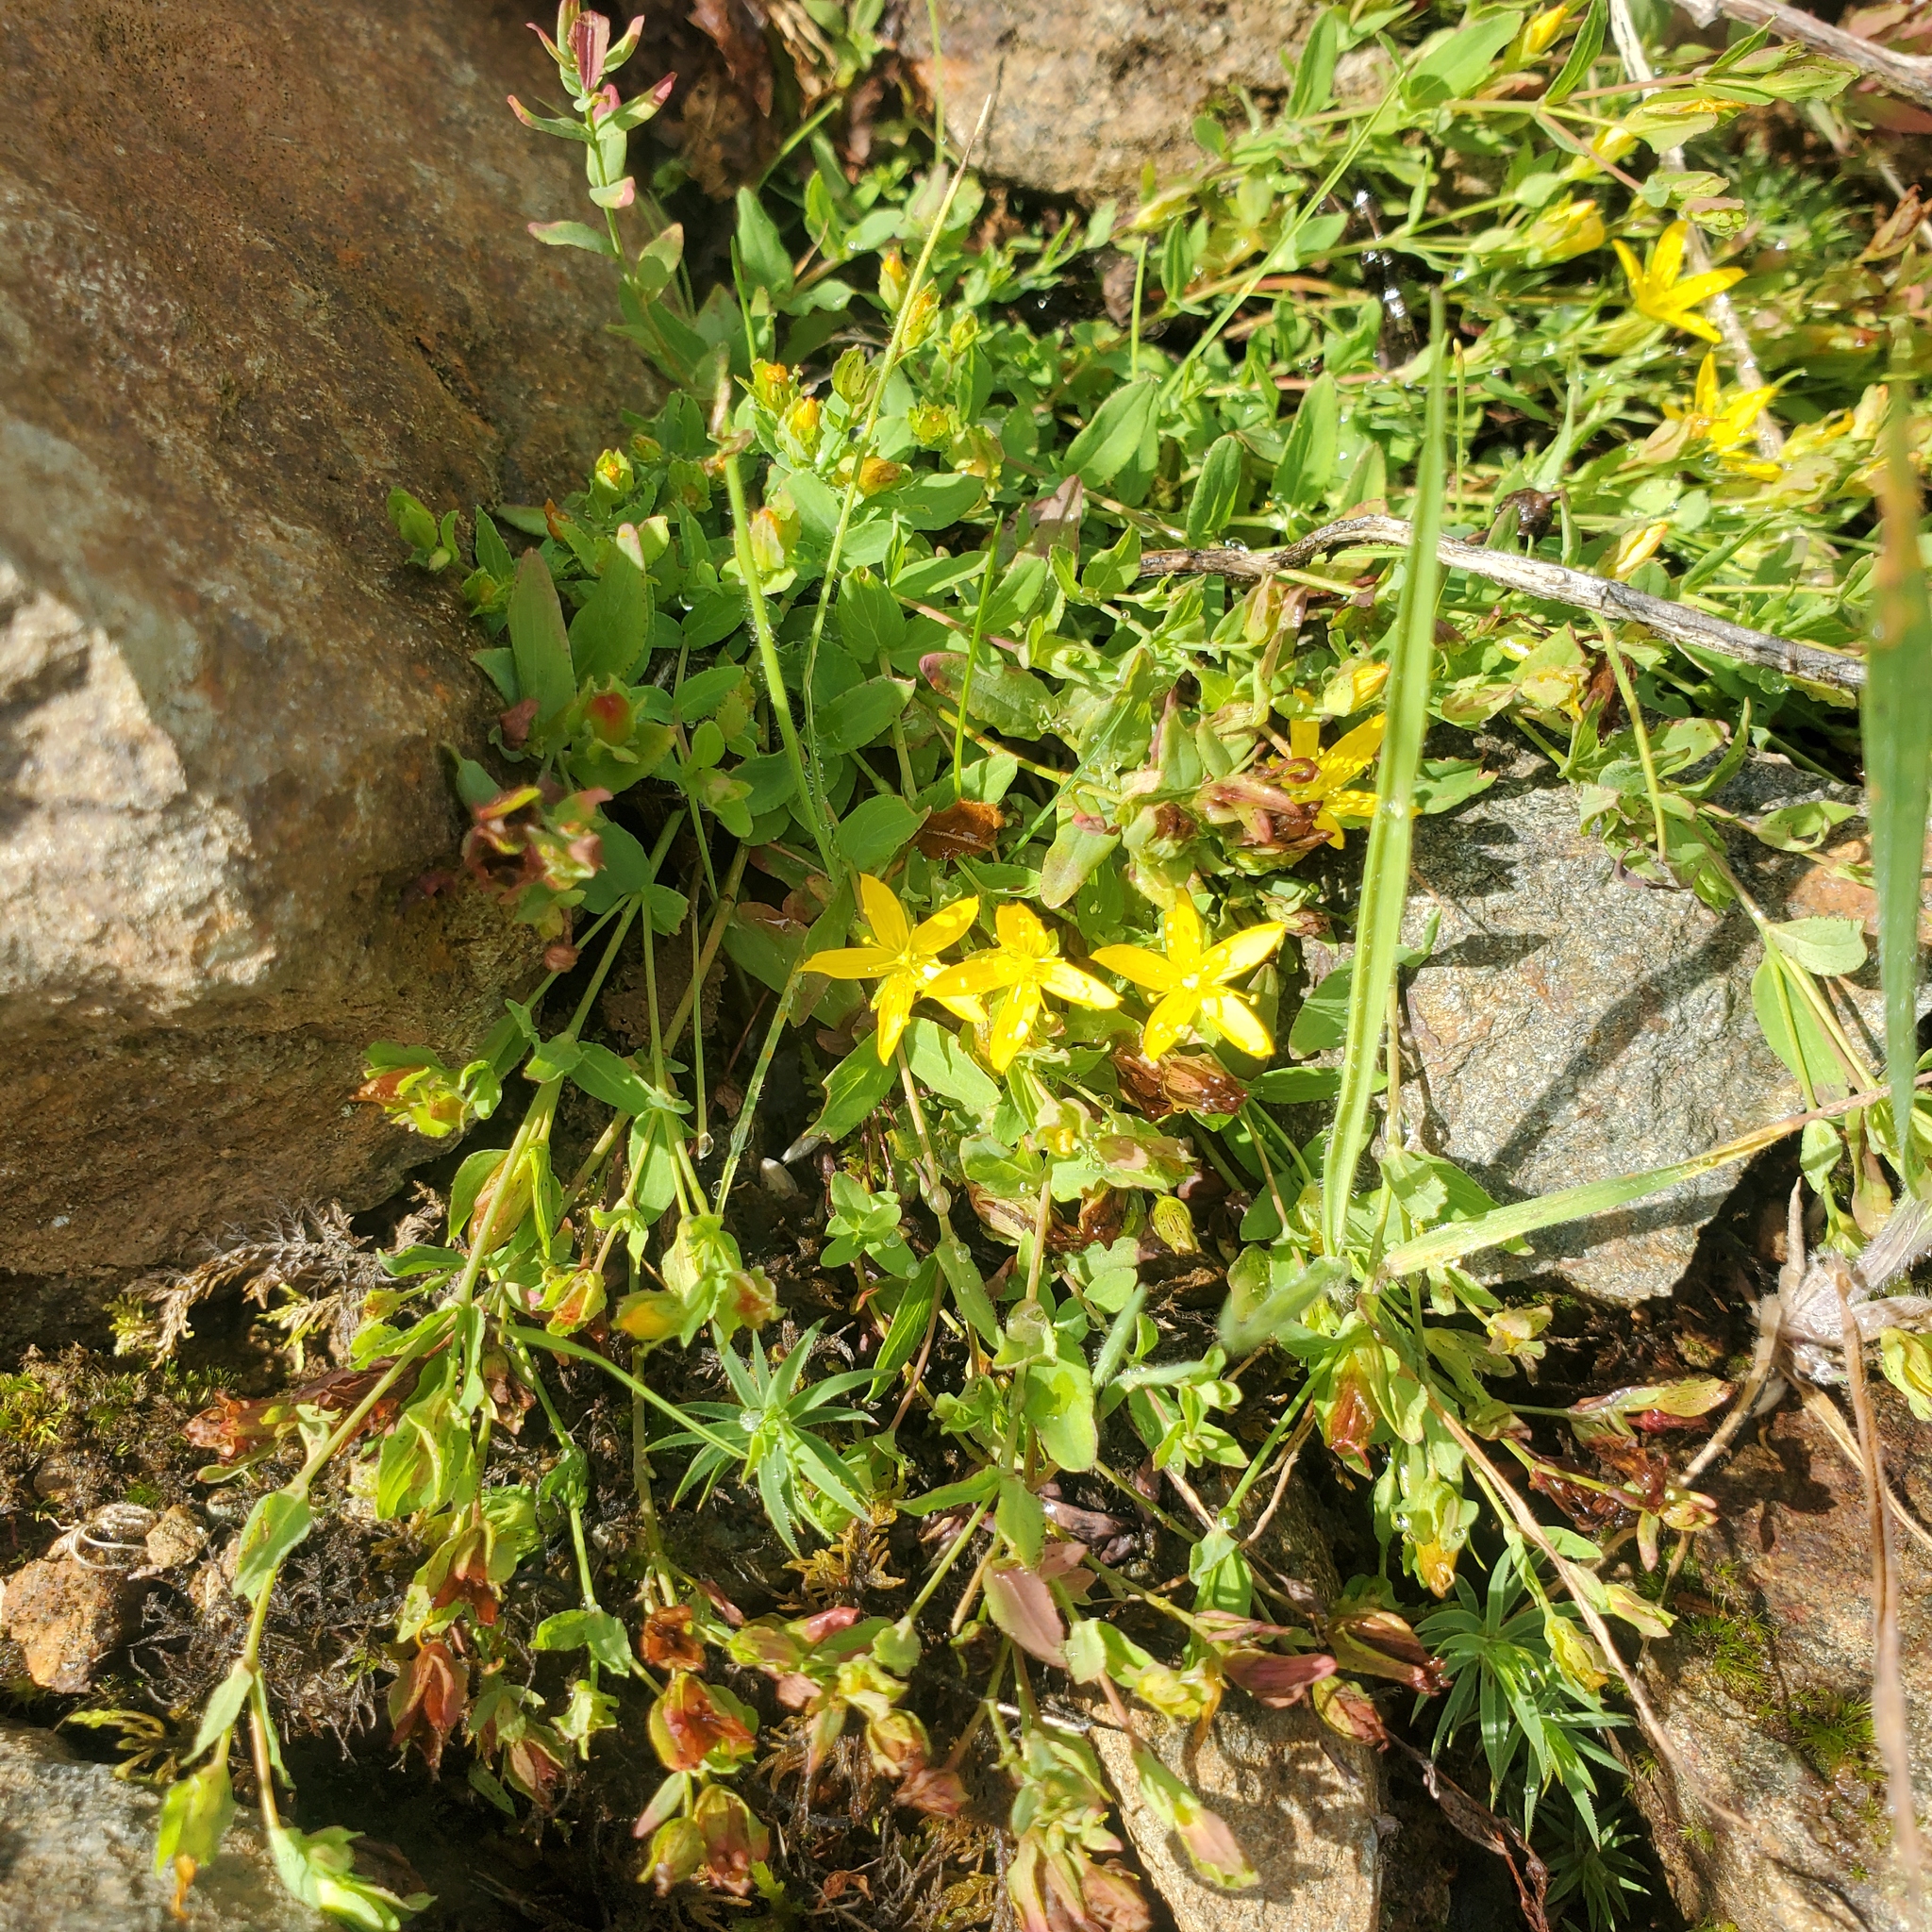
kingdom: Plantae
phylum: Tracheophyta
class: Magnoliopsida
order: Malpighiales
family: Hypericaceae
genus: Hypericum
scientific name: Hypericum humifusum
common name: Trailing st. john's-wort
